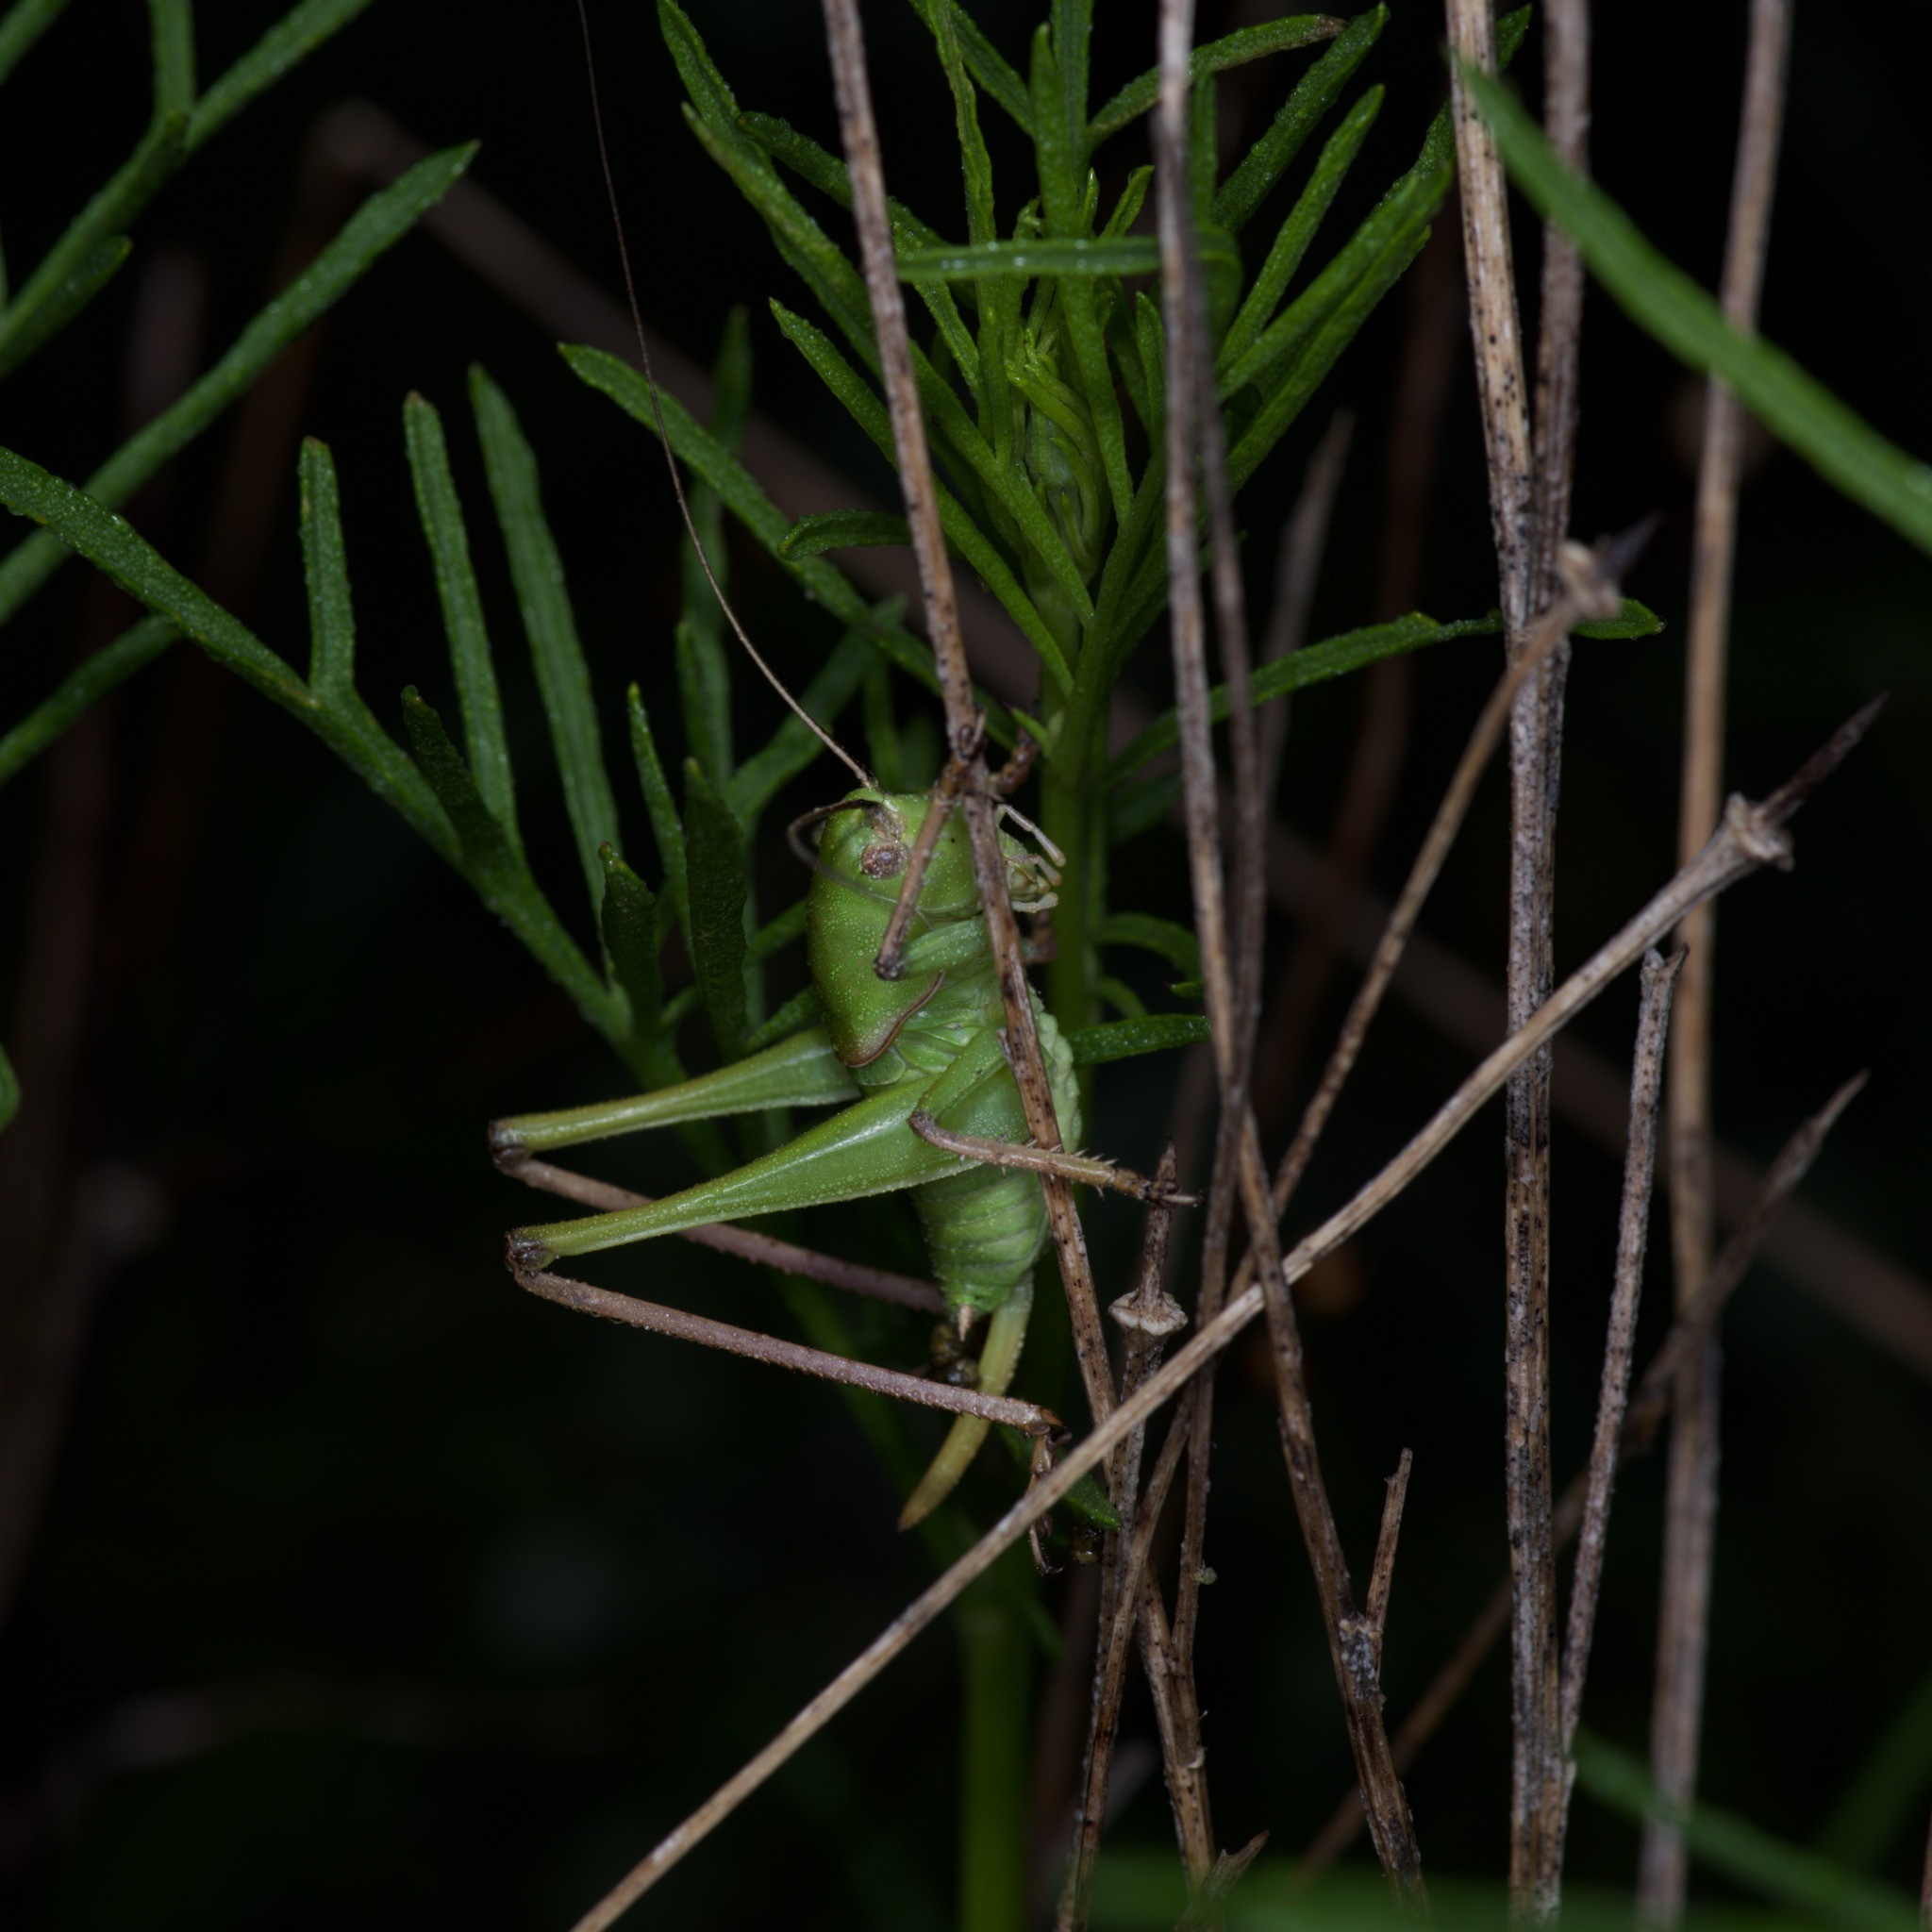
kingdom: Animalia
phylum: Arthropoda
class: Insecta
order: Orthoptera
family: Tettigoniidae
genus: Pediodectes
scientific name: Pediodectes haldemanii
